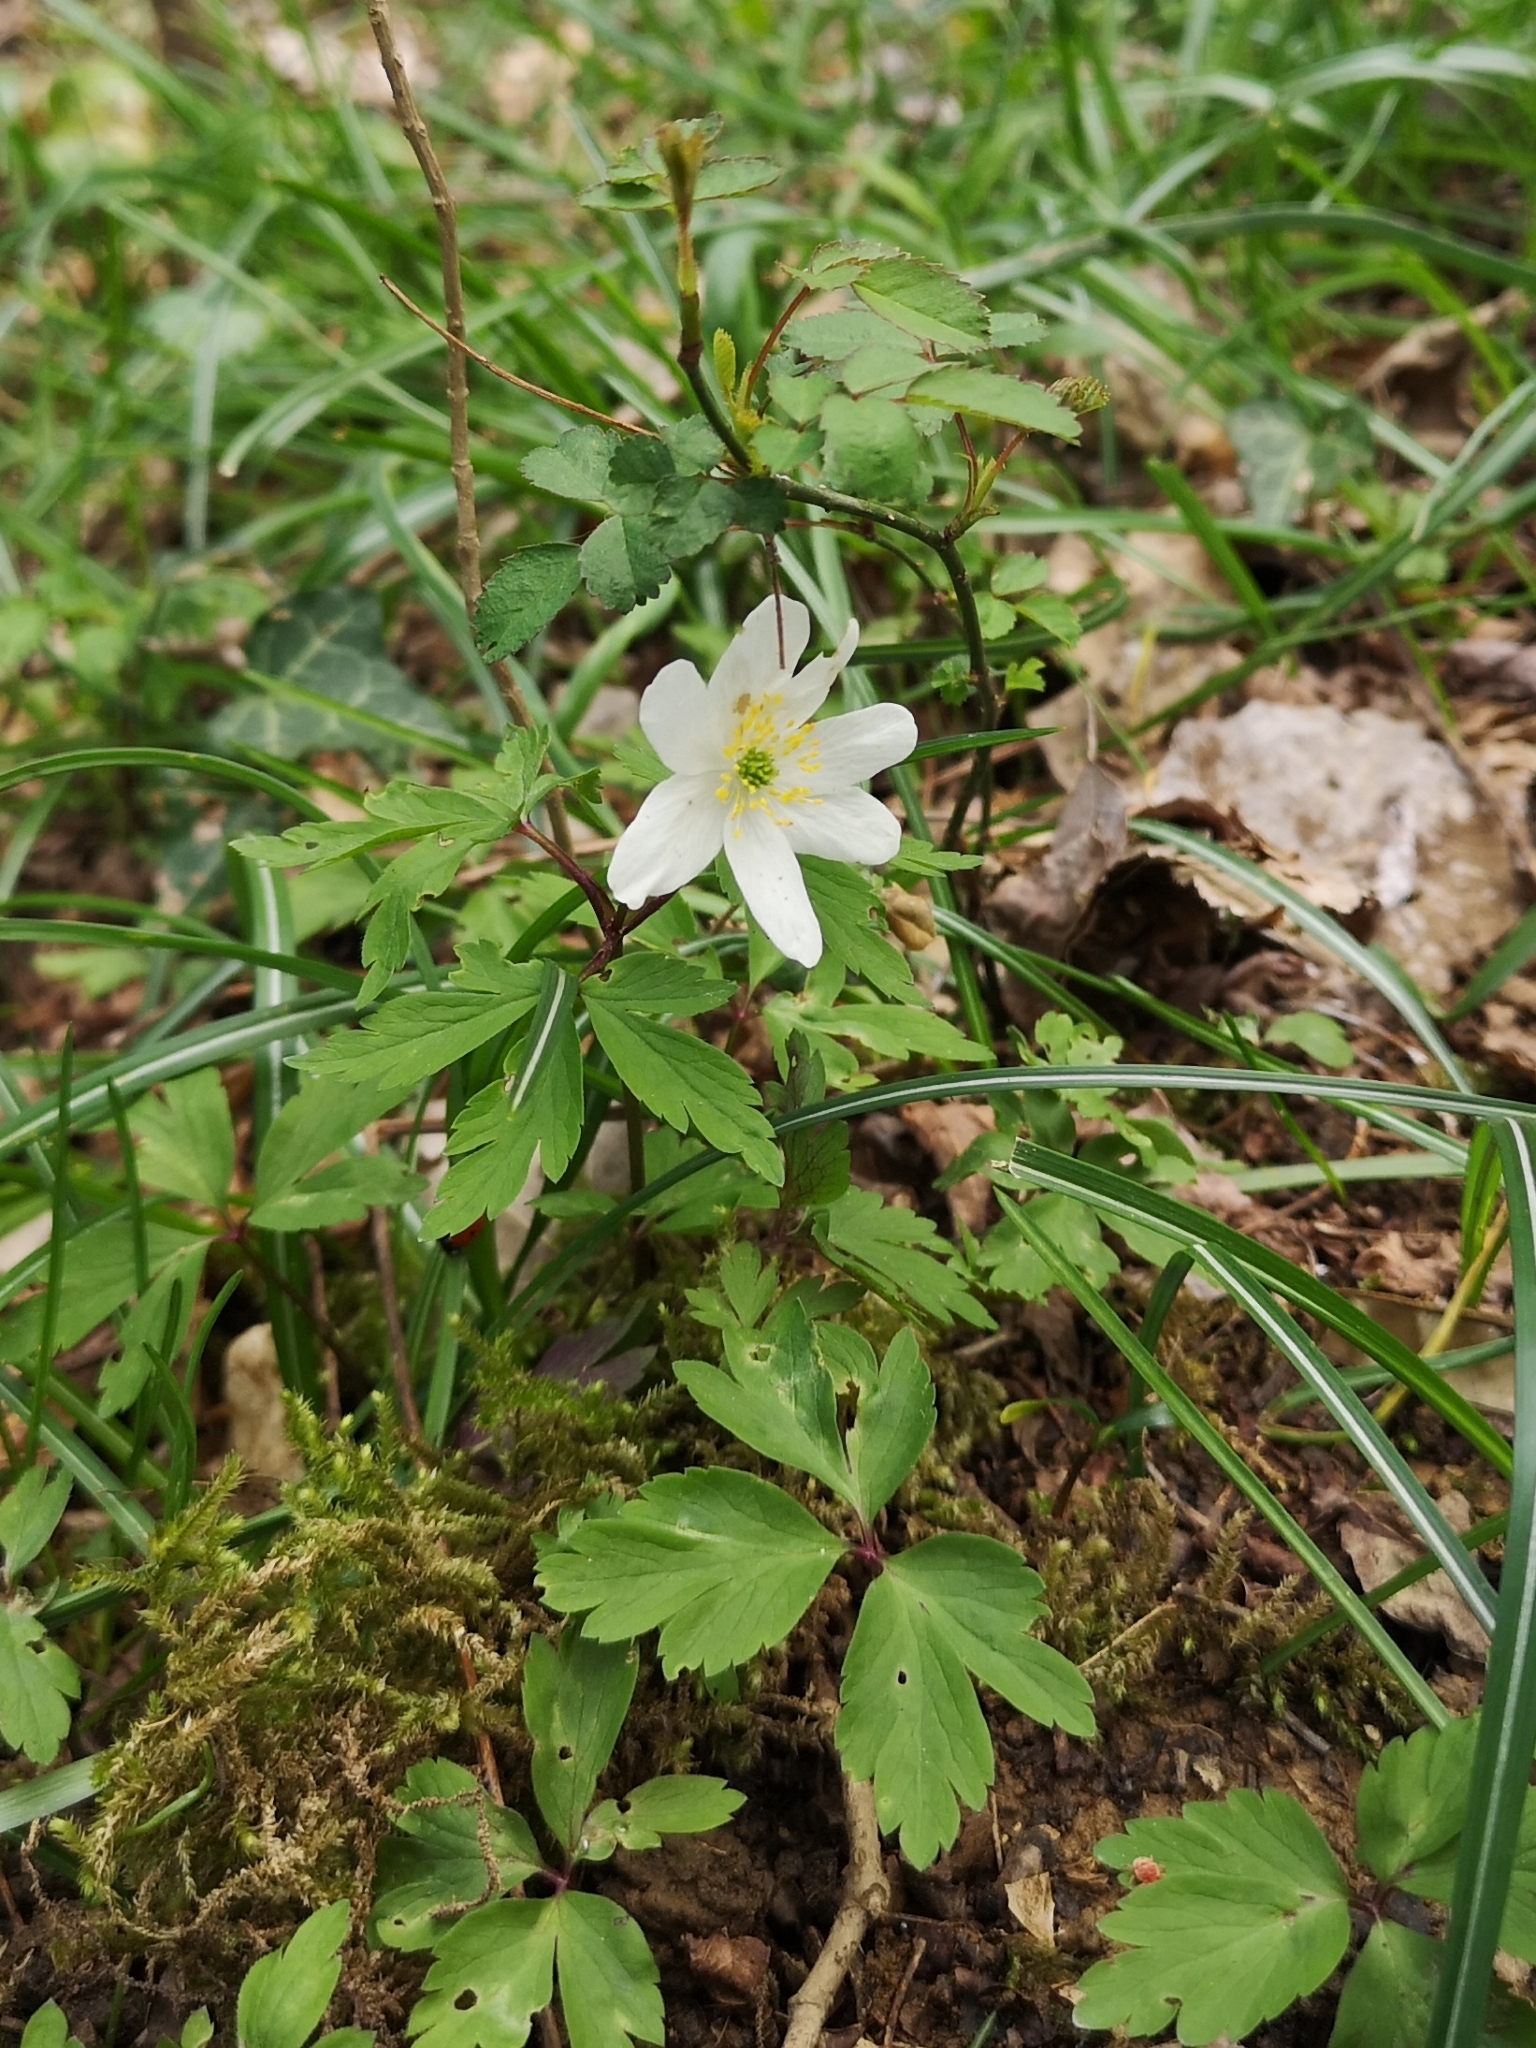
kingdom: Plantae
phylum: Tracheophyta
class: Magnoliopsida
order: Ranunculales
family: Ranunculaceae
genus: Anemone
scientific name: Anemone nemorosa
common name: Wood anemone
